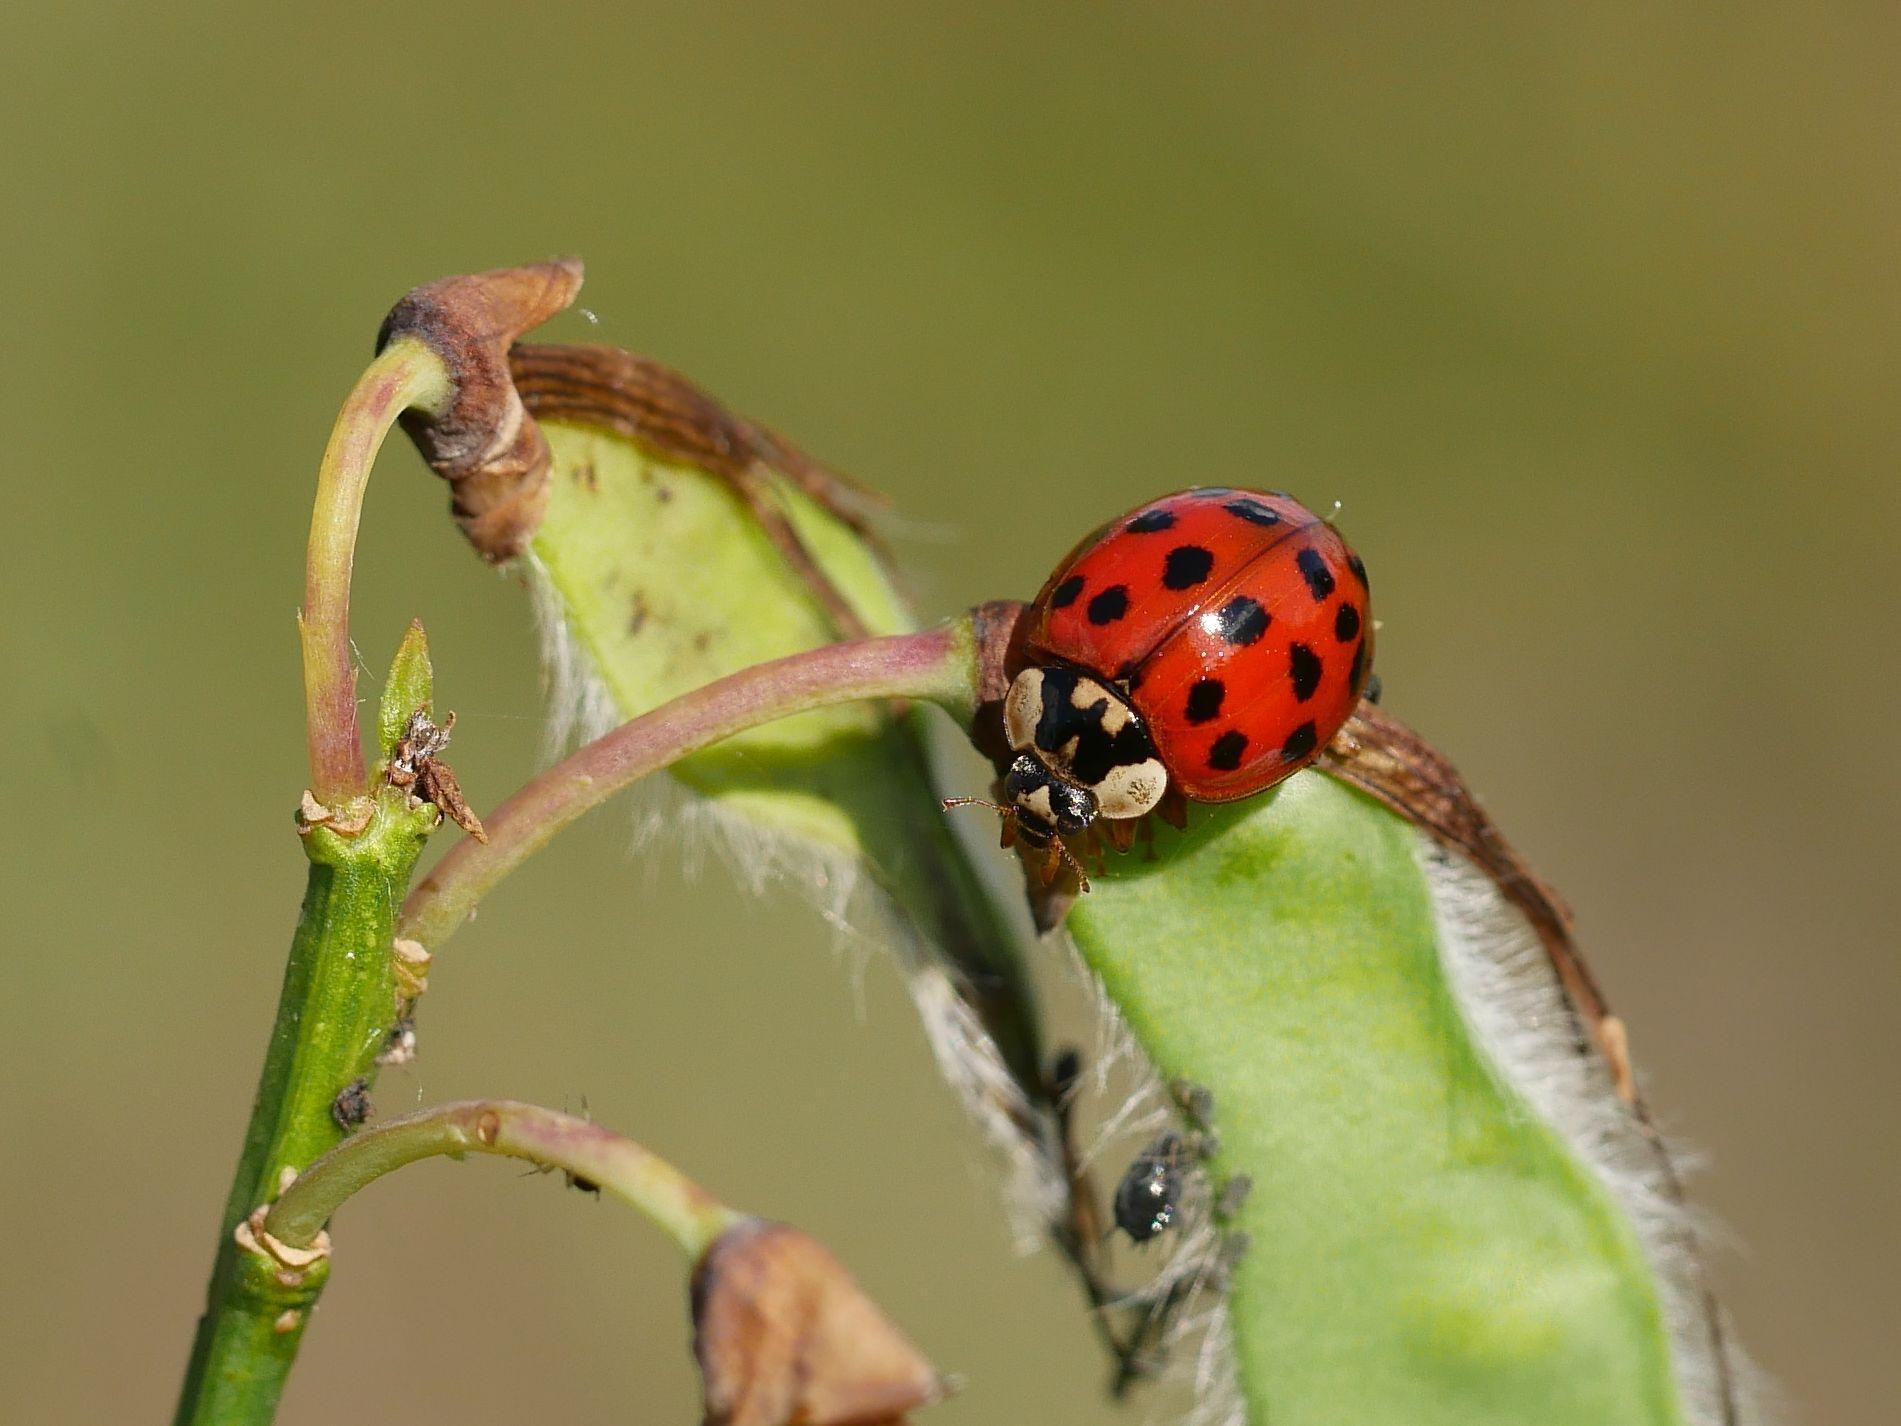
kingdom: Animalia
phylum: Arthropoda
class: Insecta
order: Coleoptera
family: Coccinellidae
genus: Harmonia
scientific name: Harmonia axyridis
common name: Harlequin ladybird
